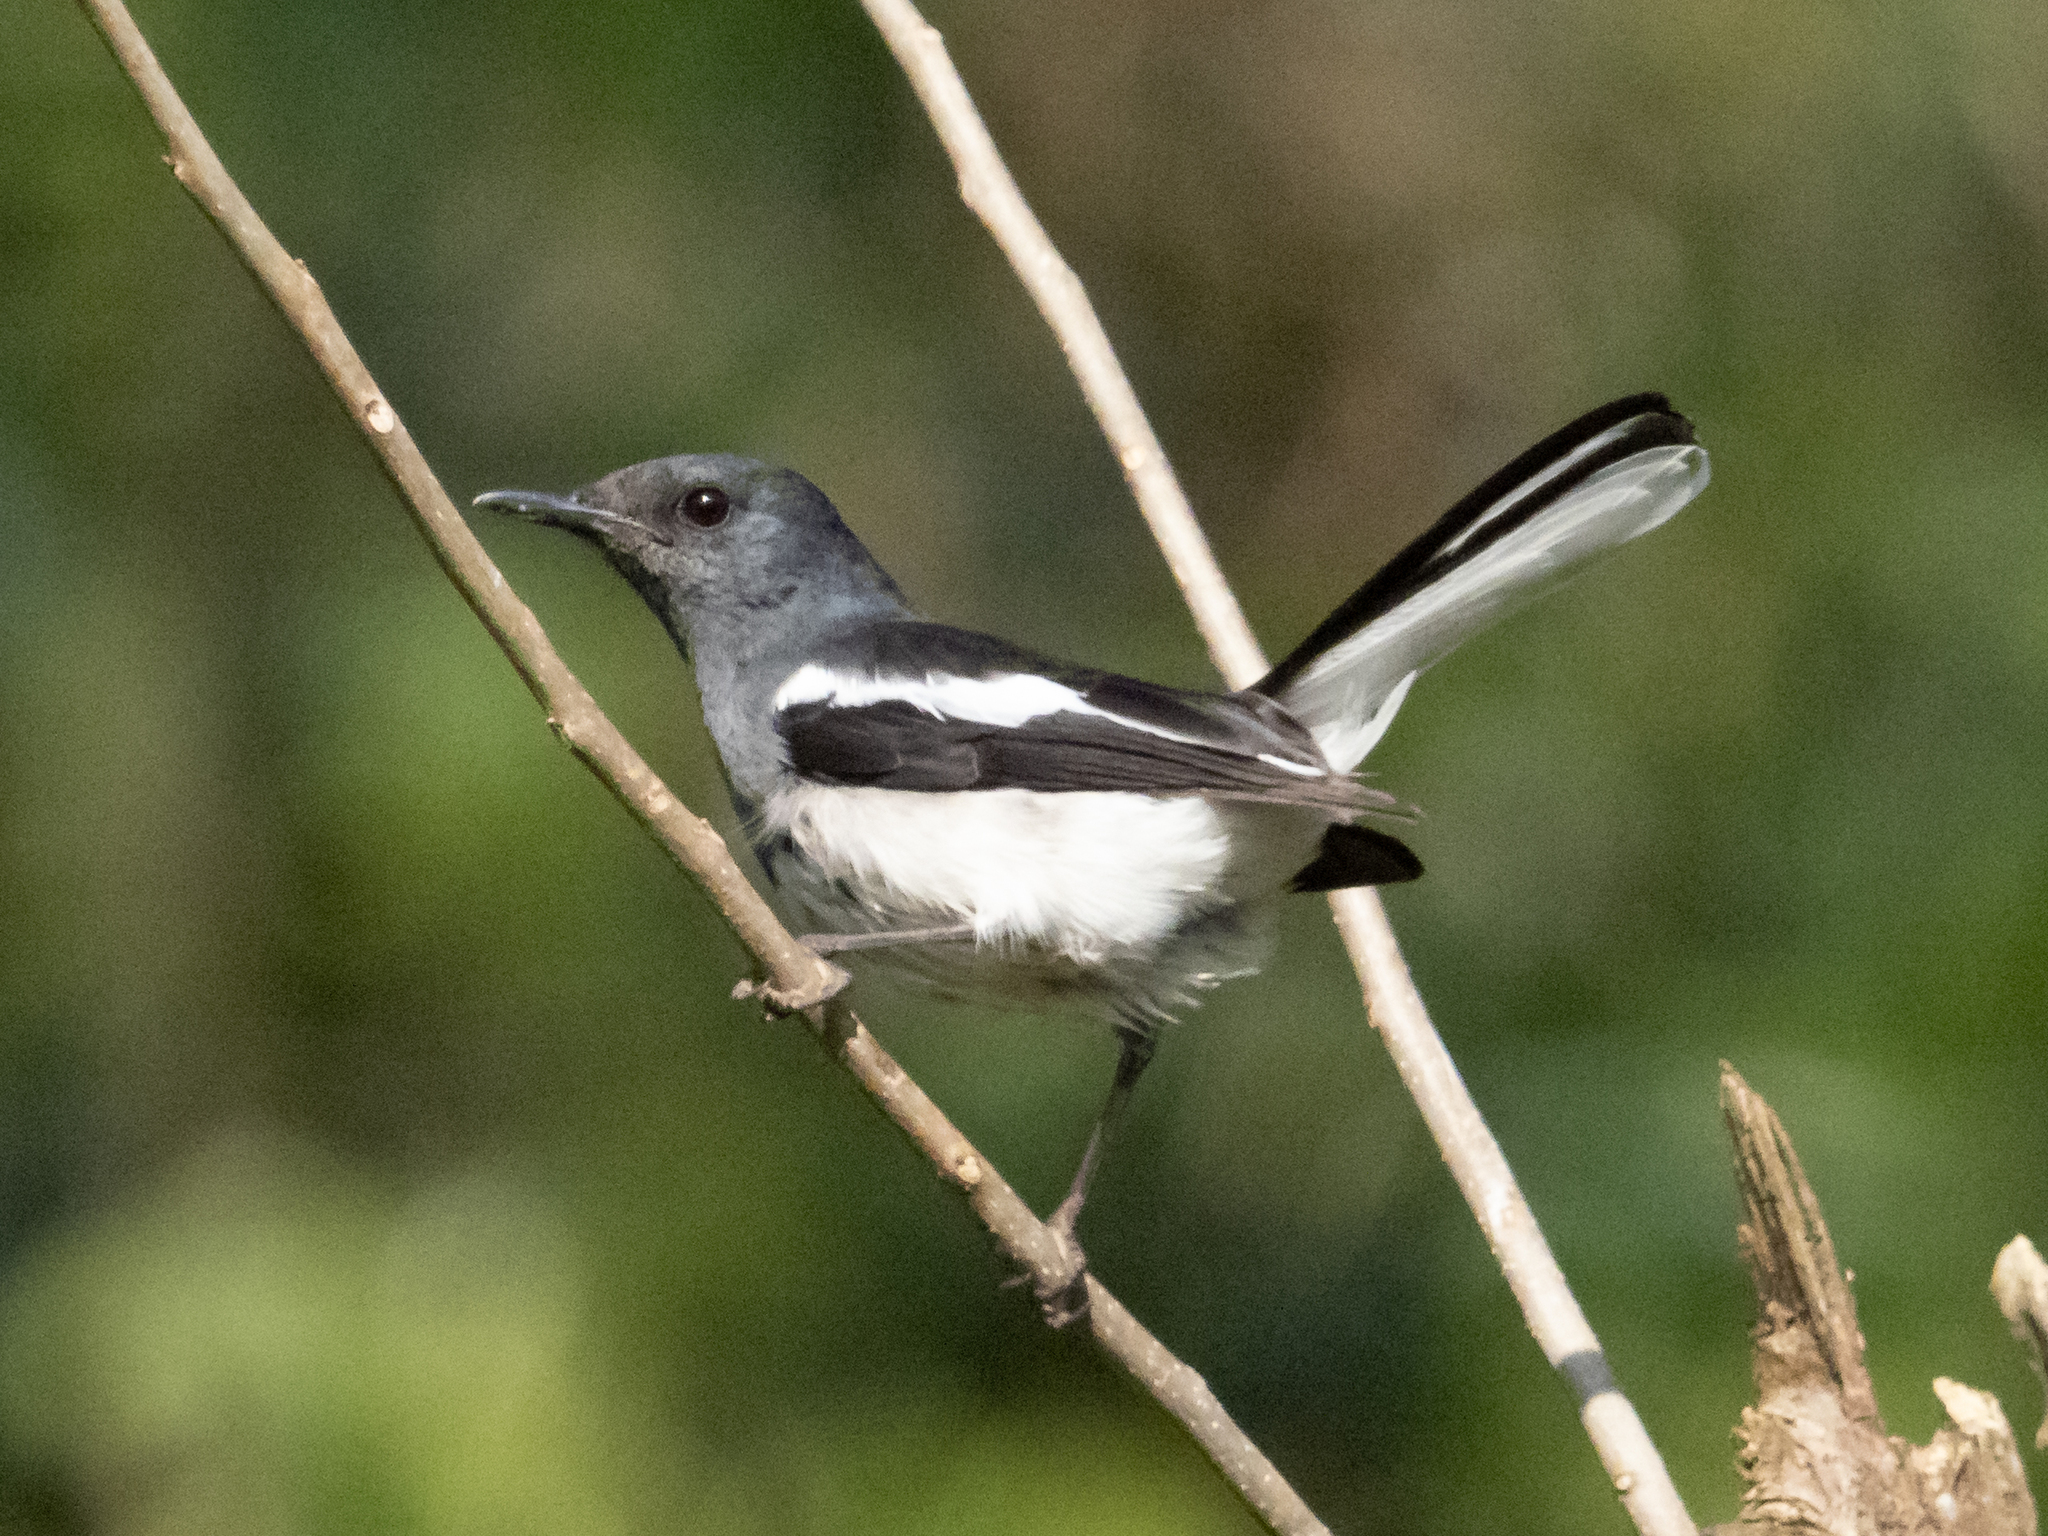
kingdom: Animalia
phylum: Chordata
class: Aves
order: Passeriformes
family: Muscicapidae
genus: Copsychus
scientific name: Copsychus saularis
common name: Oriental magpie-robin
